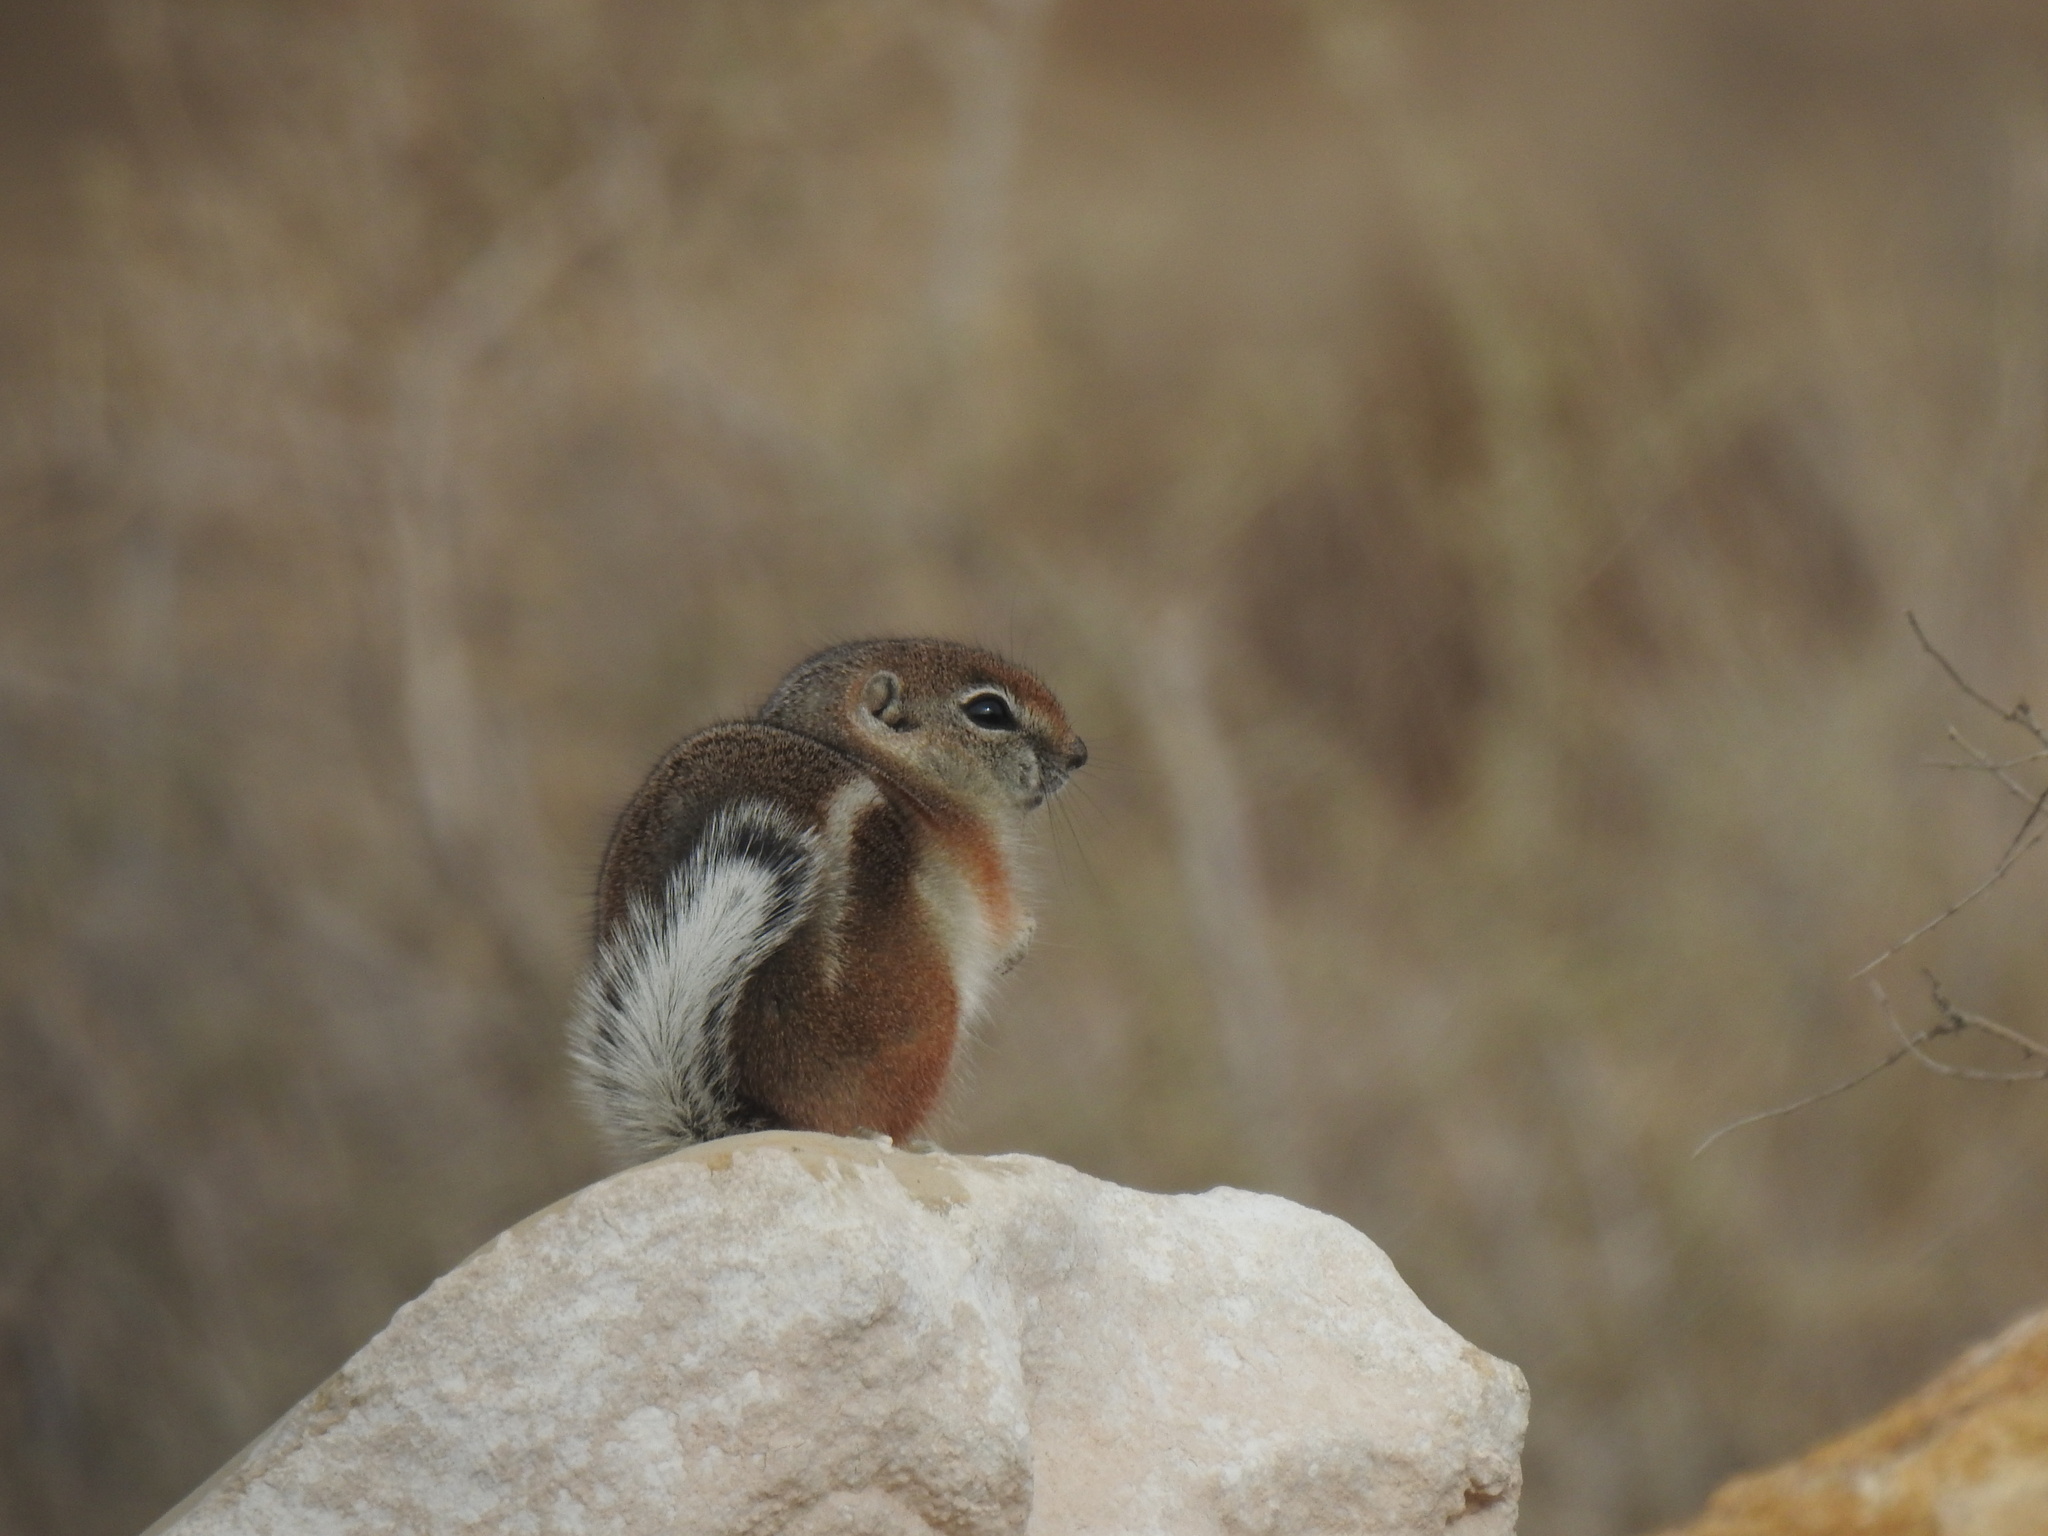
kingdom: Animalia
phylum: Chordata
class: Mammalia
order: Rodentia
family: Sciuridae
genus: Ammospermophilus
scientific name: Ammospermophilus leucurus
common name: White-tailed antelope squirrel
